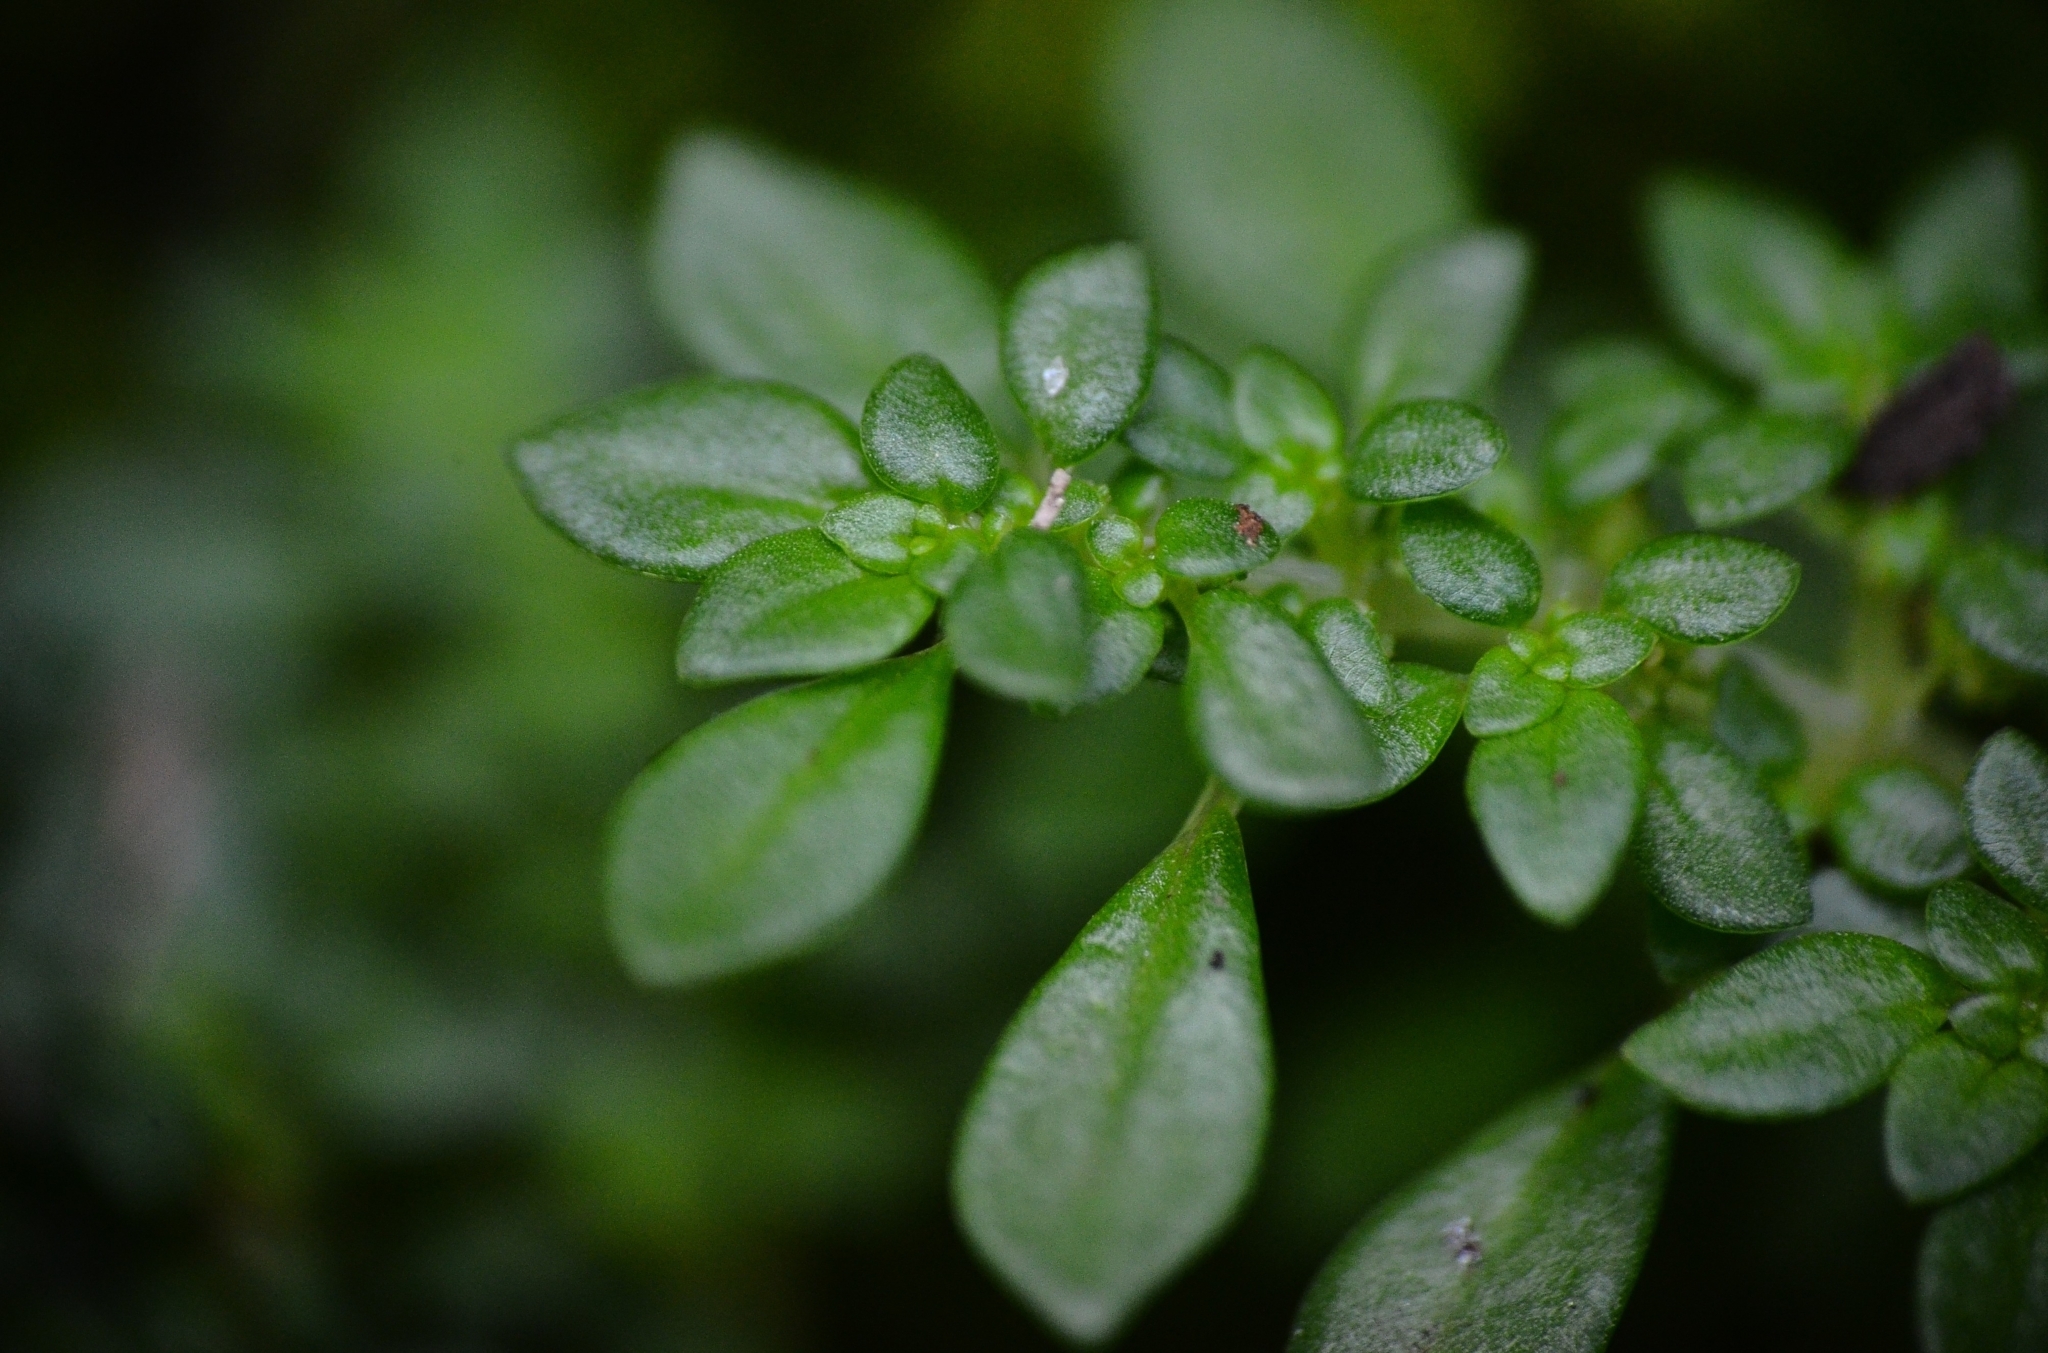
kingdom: Plantae
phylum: Tracheophyta
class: Magnoliopsida
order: Rosales
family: Urticaceae
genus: Pilea
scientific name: Pilea microphylla
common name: Artillery-plant
